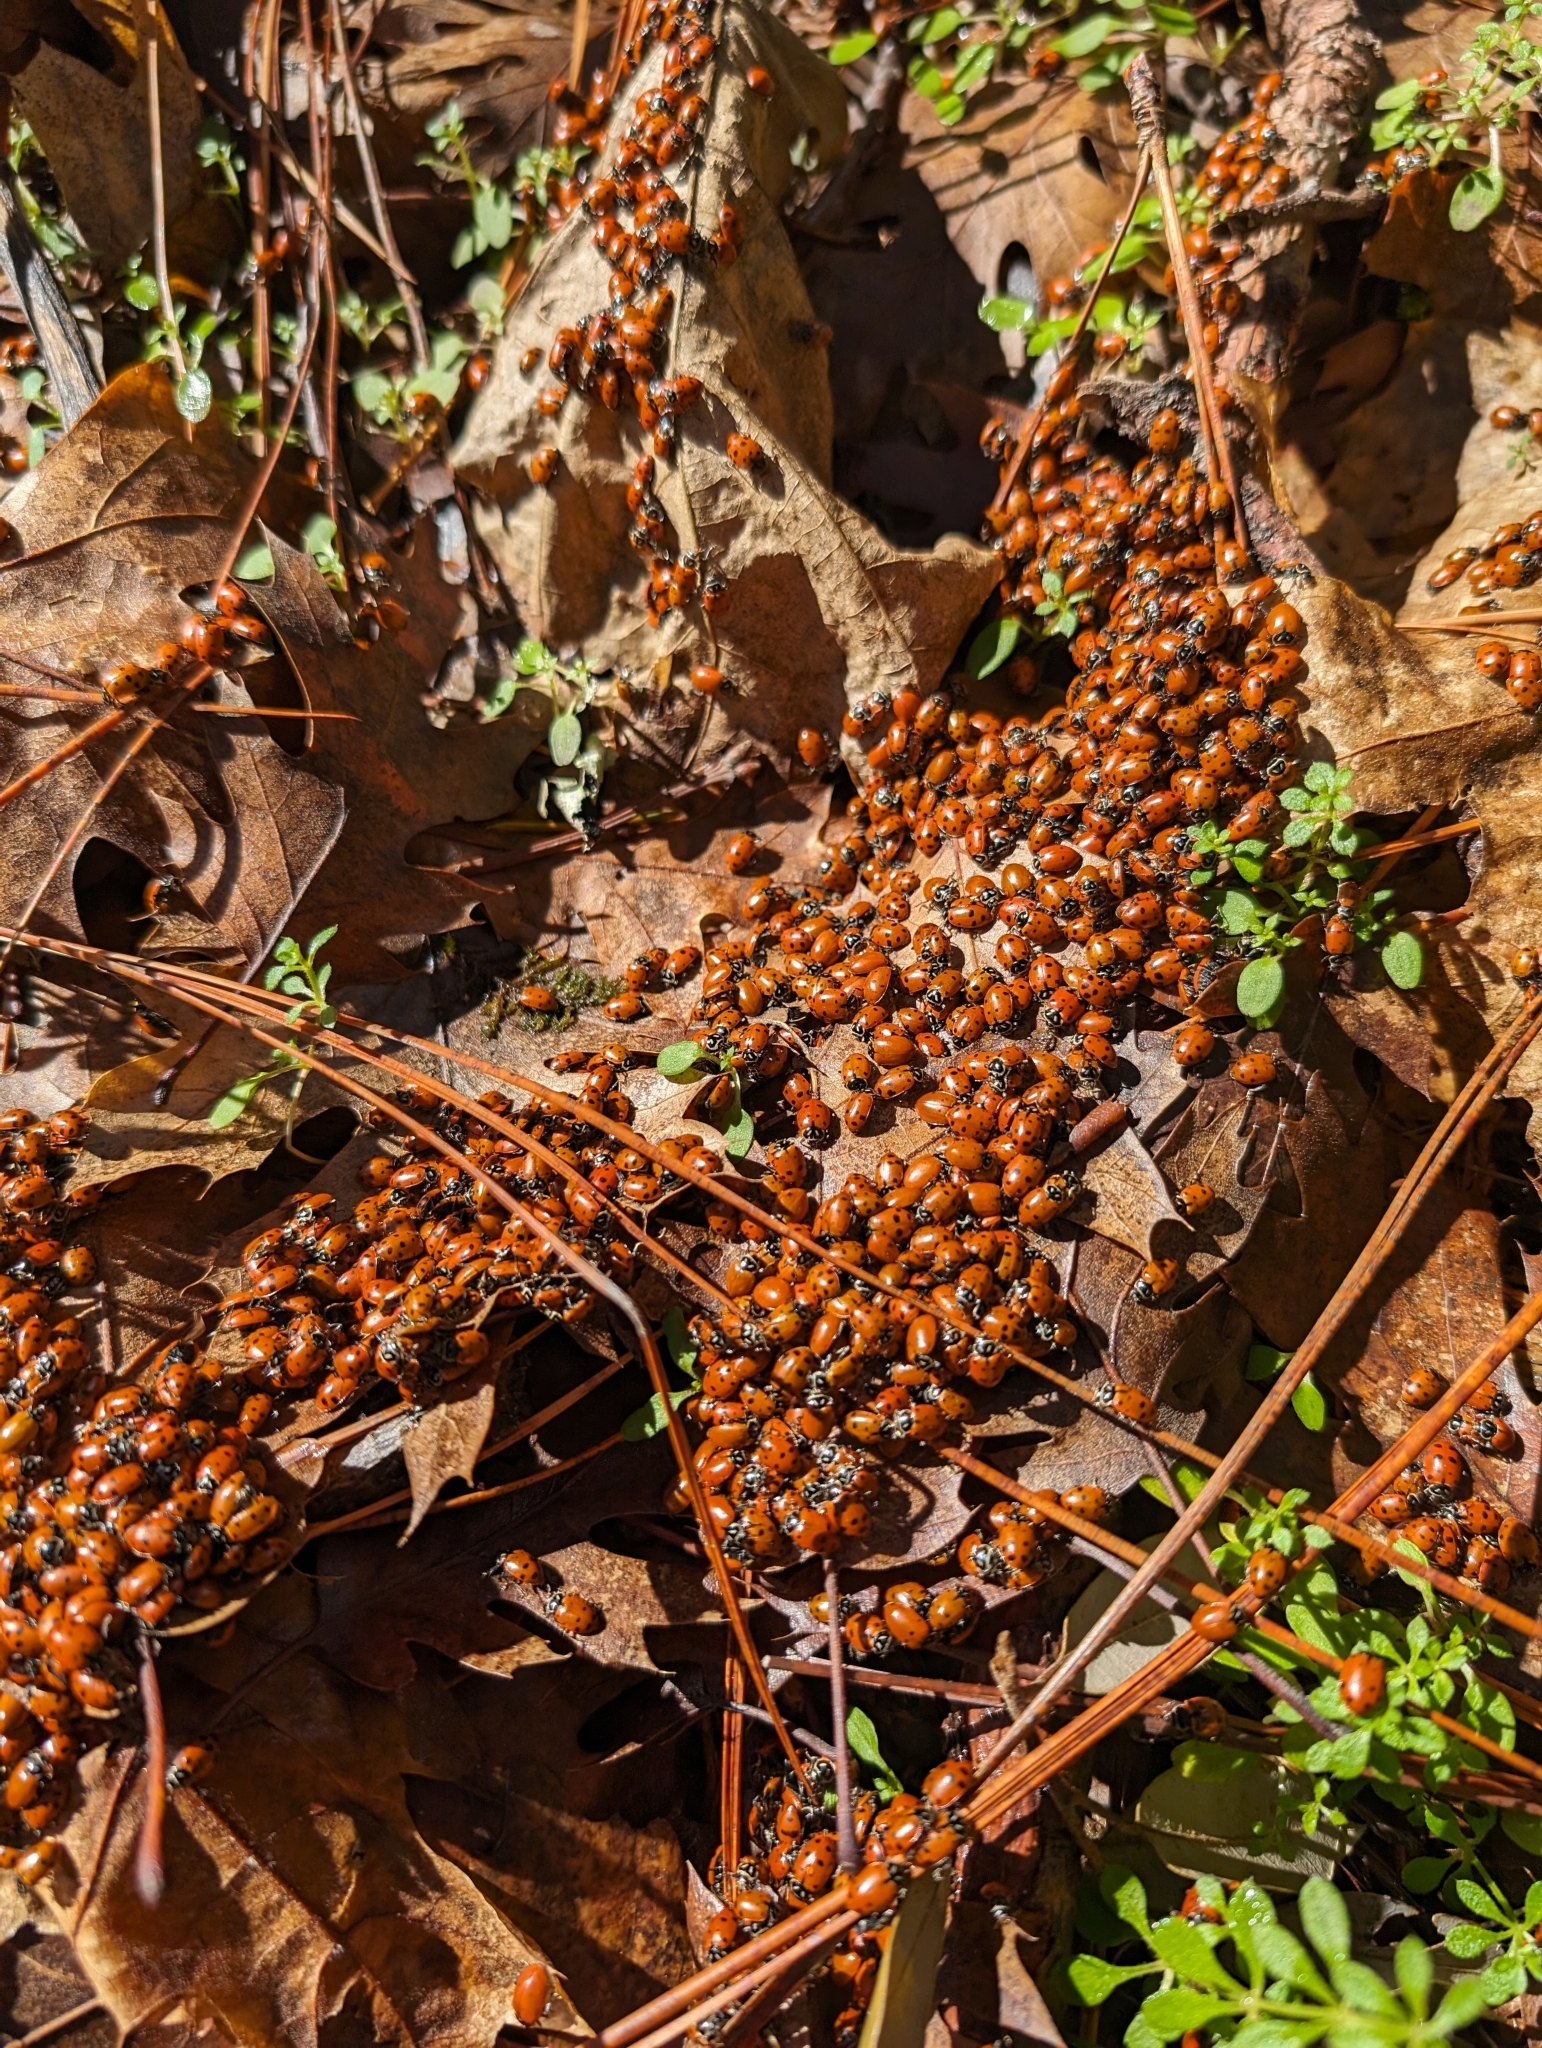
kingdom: Animalia
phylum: Arthropoda
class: Insecta
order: Coleoptera
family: Coccinellidae
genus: Hippodamia
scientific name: Hippodamia convergens
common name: Convergent lady beetle
